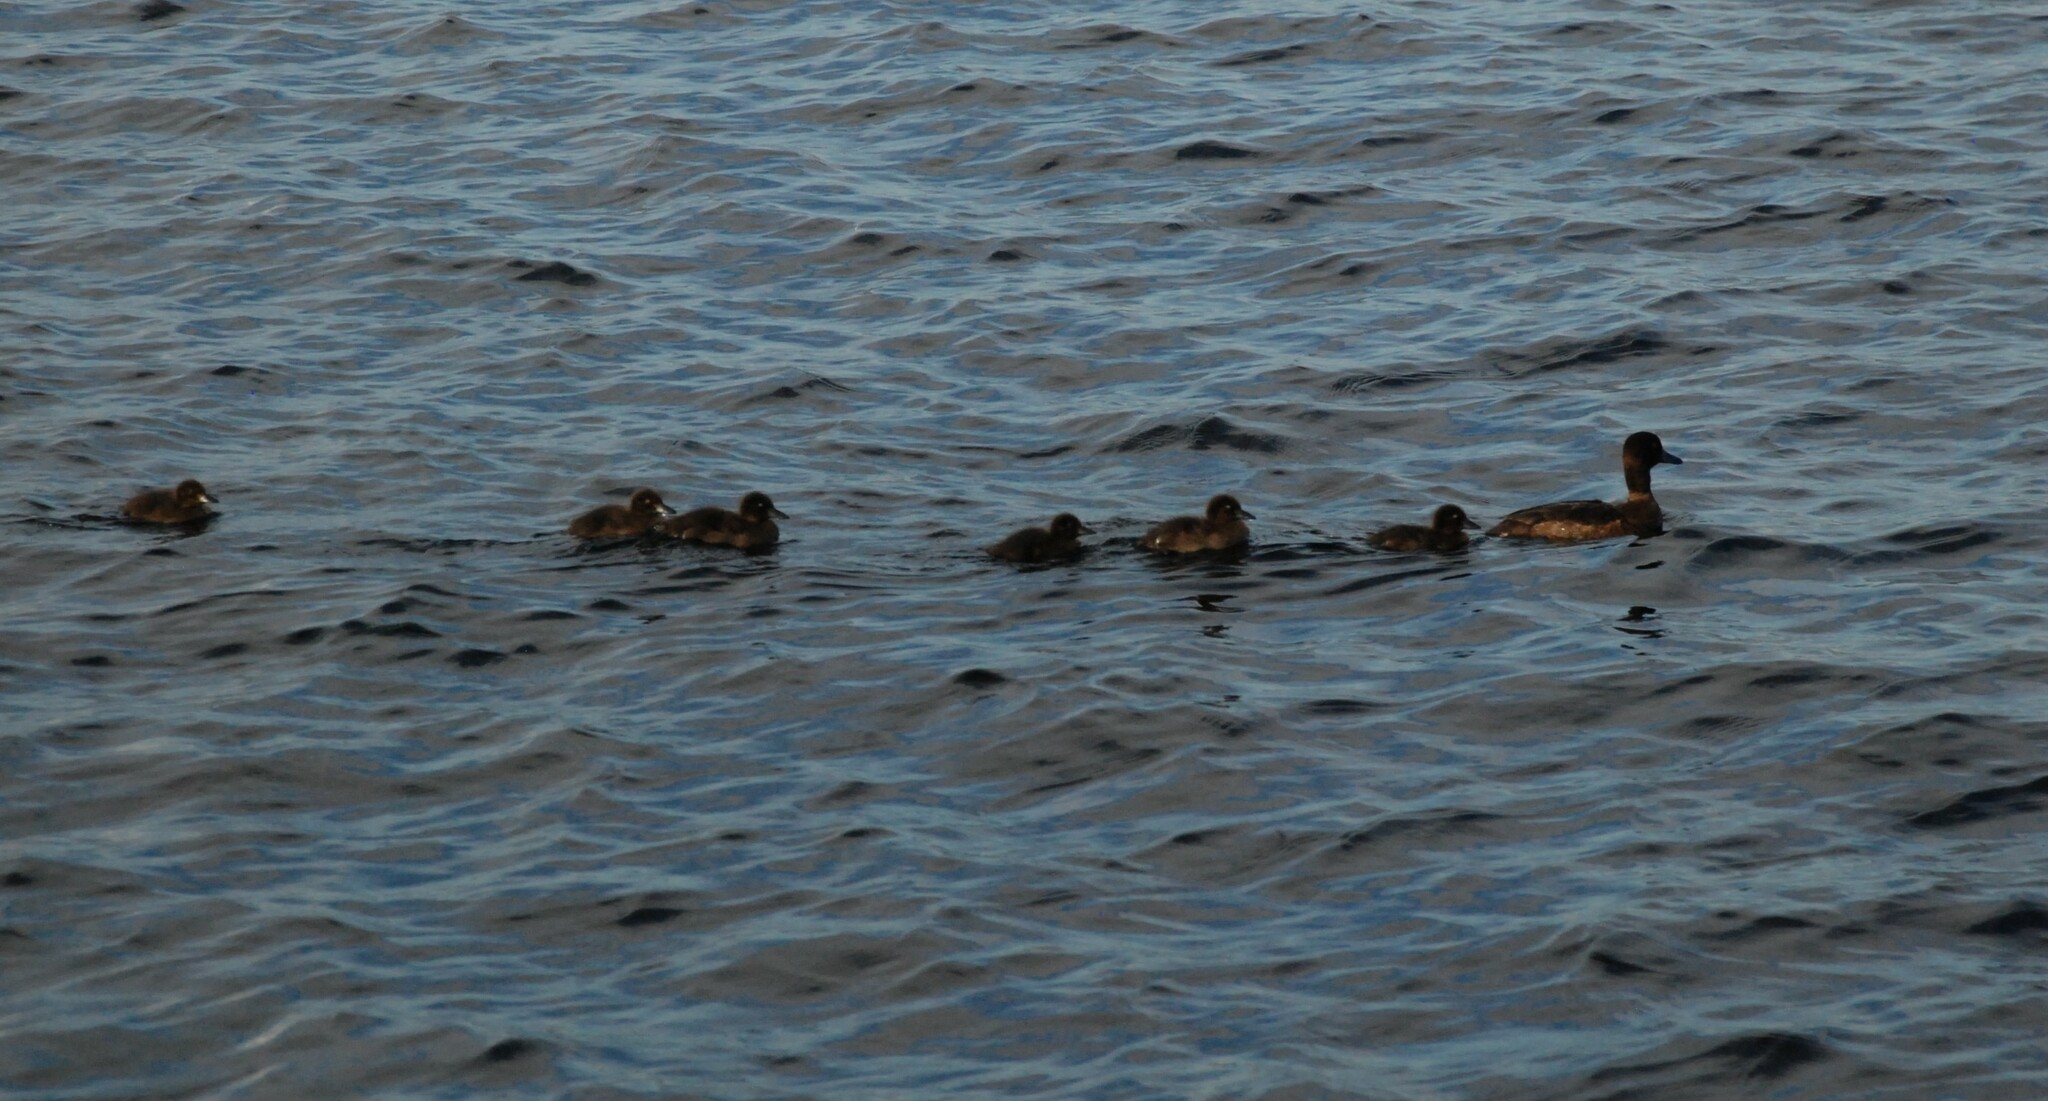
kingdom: Animalia
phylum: Chordata
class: Aves
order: Anseriformes
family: Anatidae
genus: Aythya
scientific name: Aythya fuligula
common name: Tufted duck
